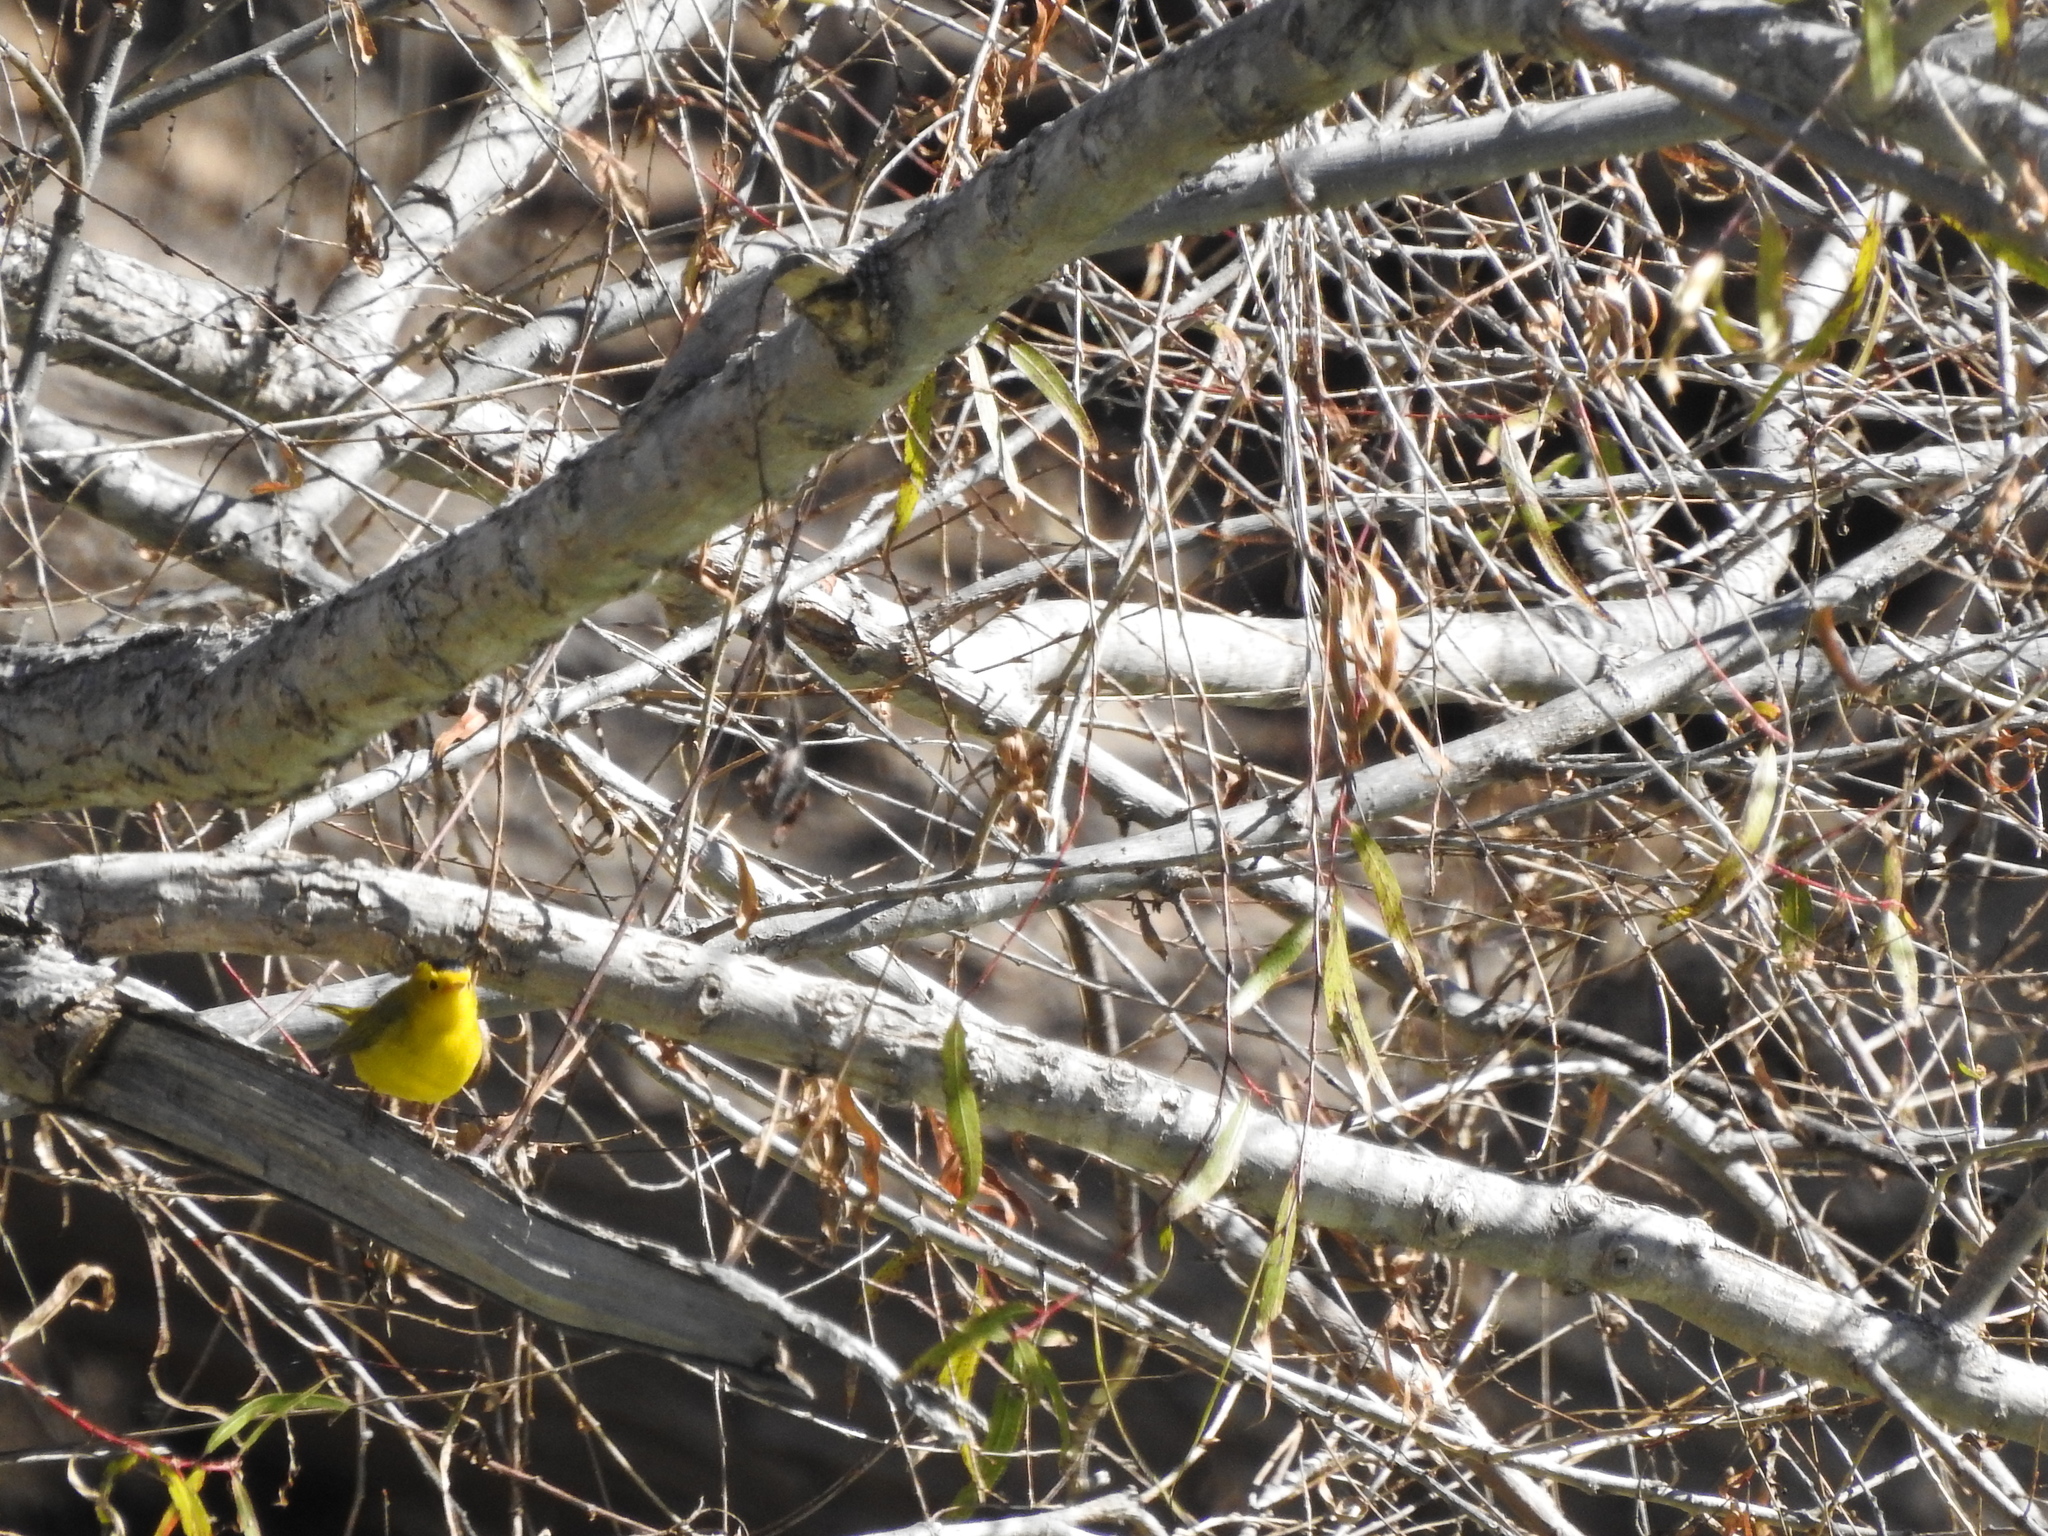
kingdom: Animalia
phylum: Chordata
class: Aves
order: Passeriformes
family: Parulidae
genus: Cardellina
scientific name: Cardellina pusilla
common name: Wilson's warbler
